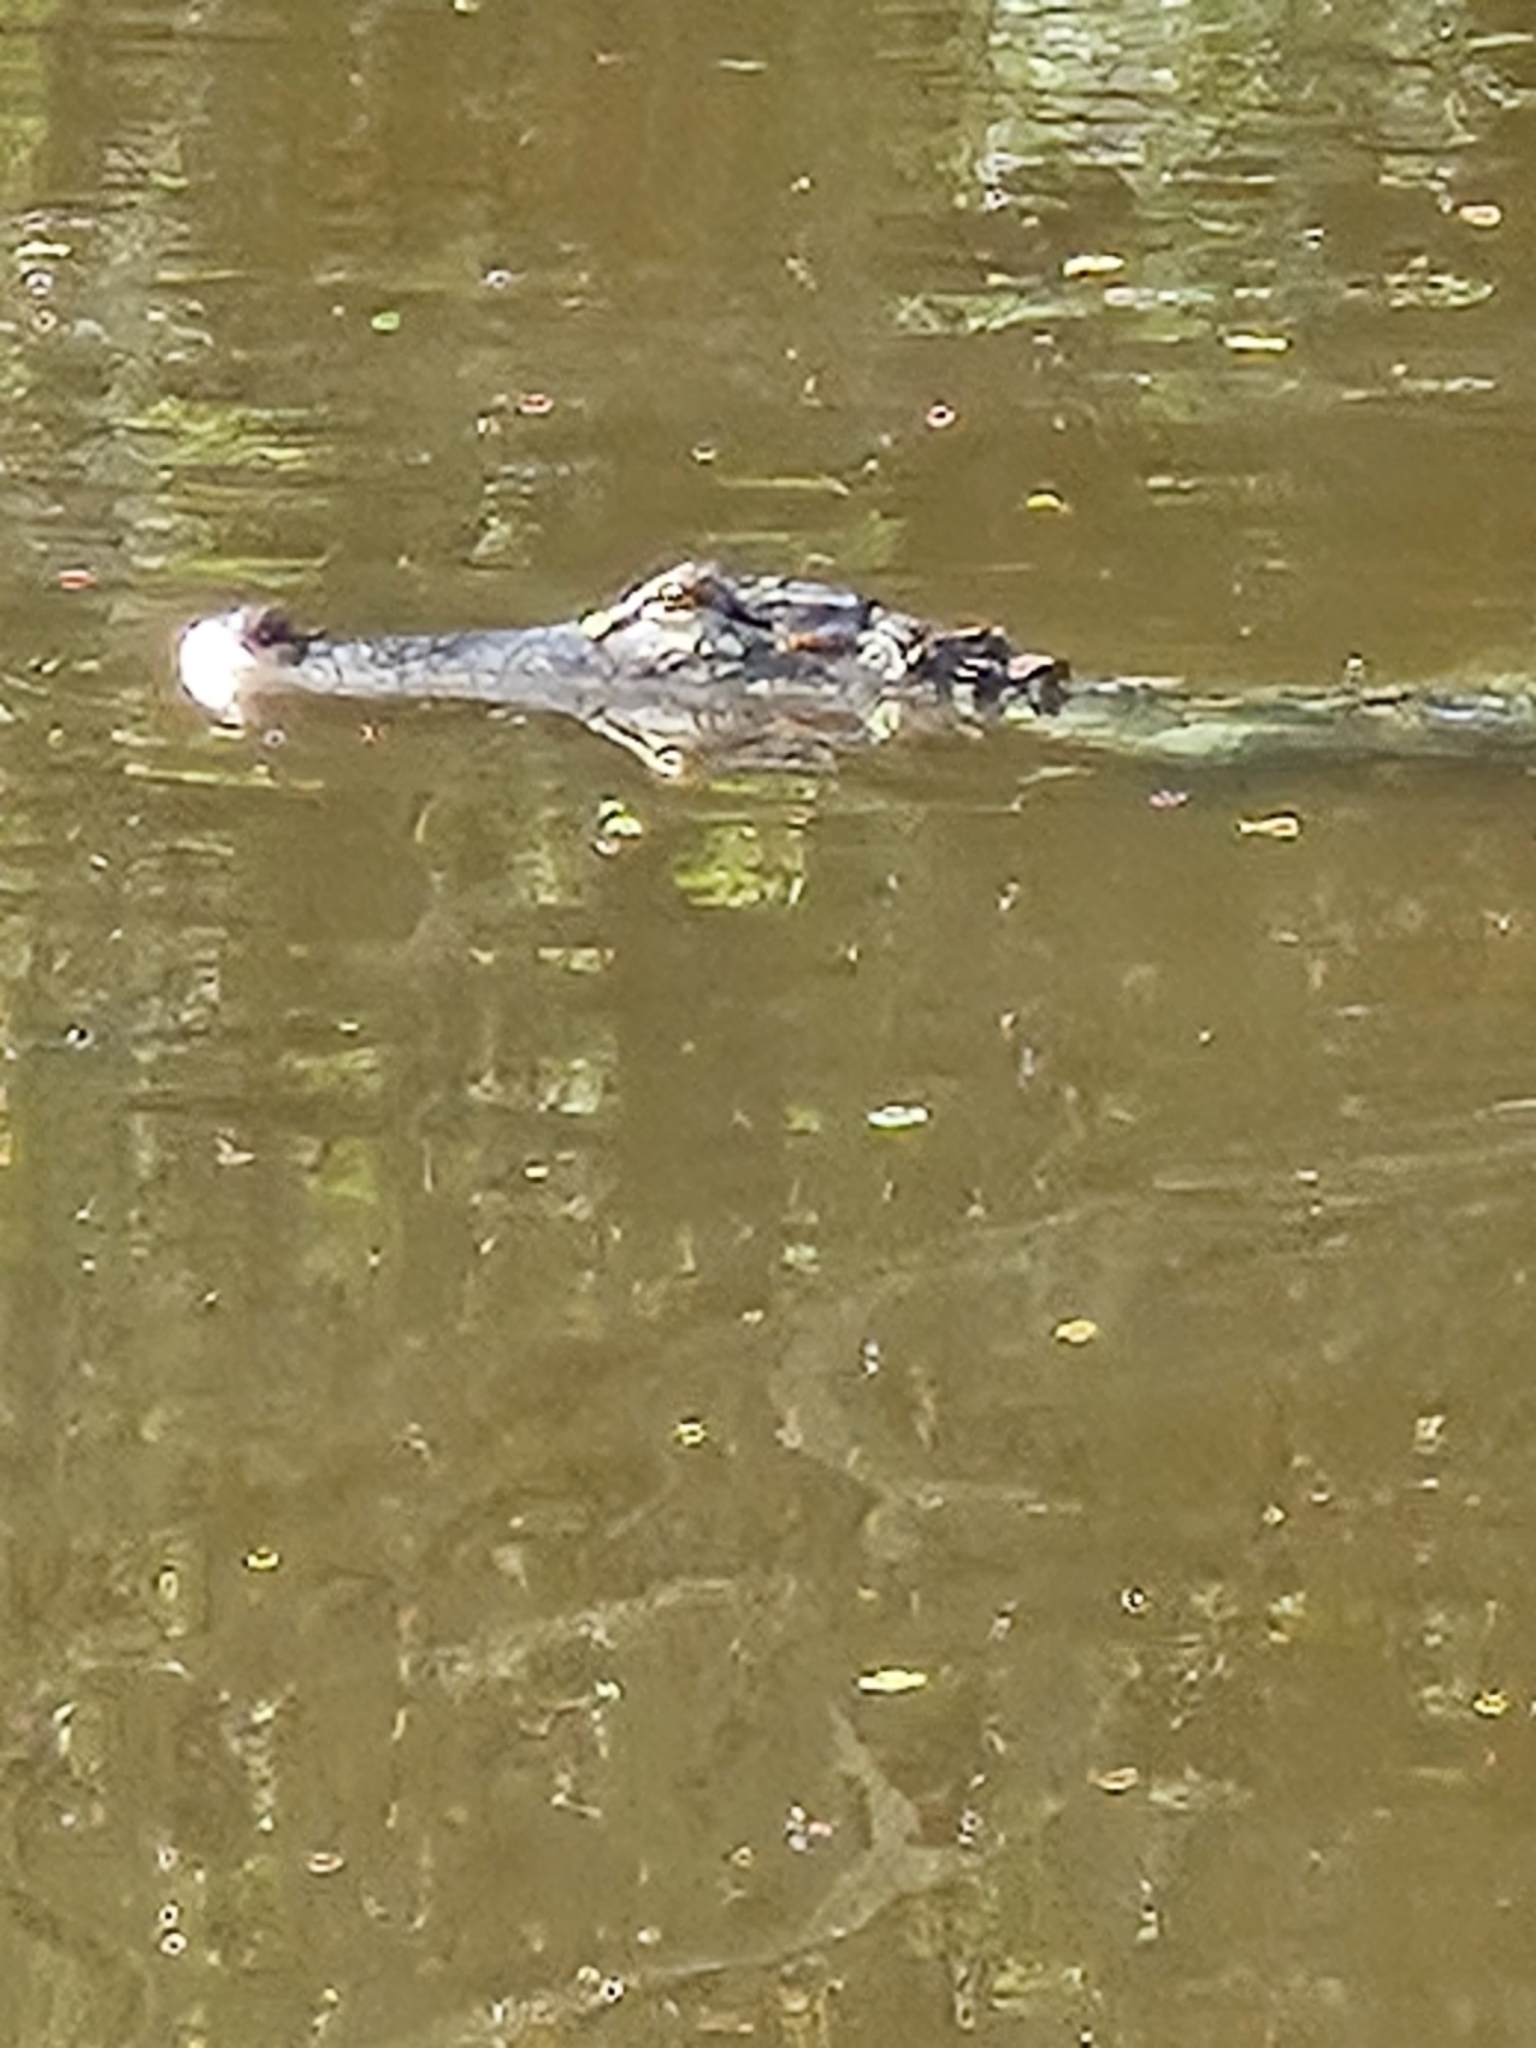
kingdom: Animalia
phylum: Chordata
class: Crocodylia
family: Alligatoridae
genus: Alligator
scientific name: Alligator mississippiensis
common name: American alligator
